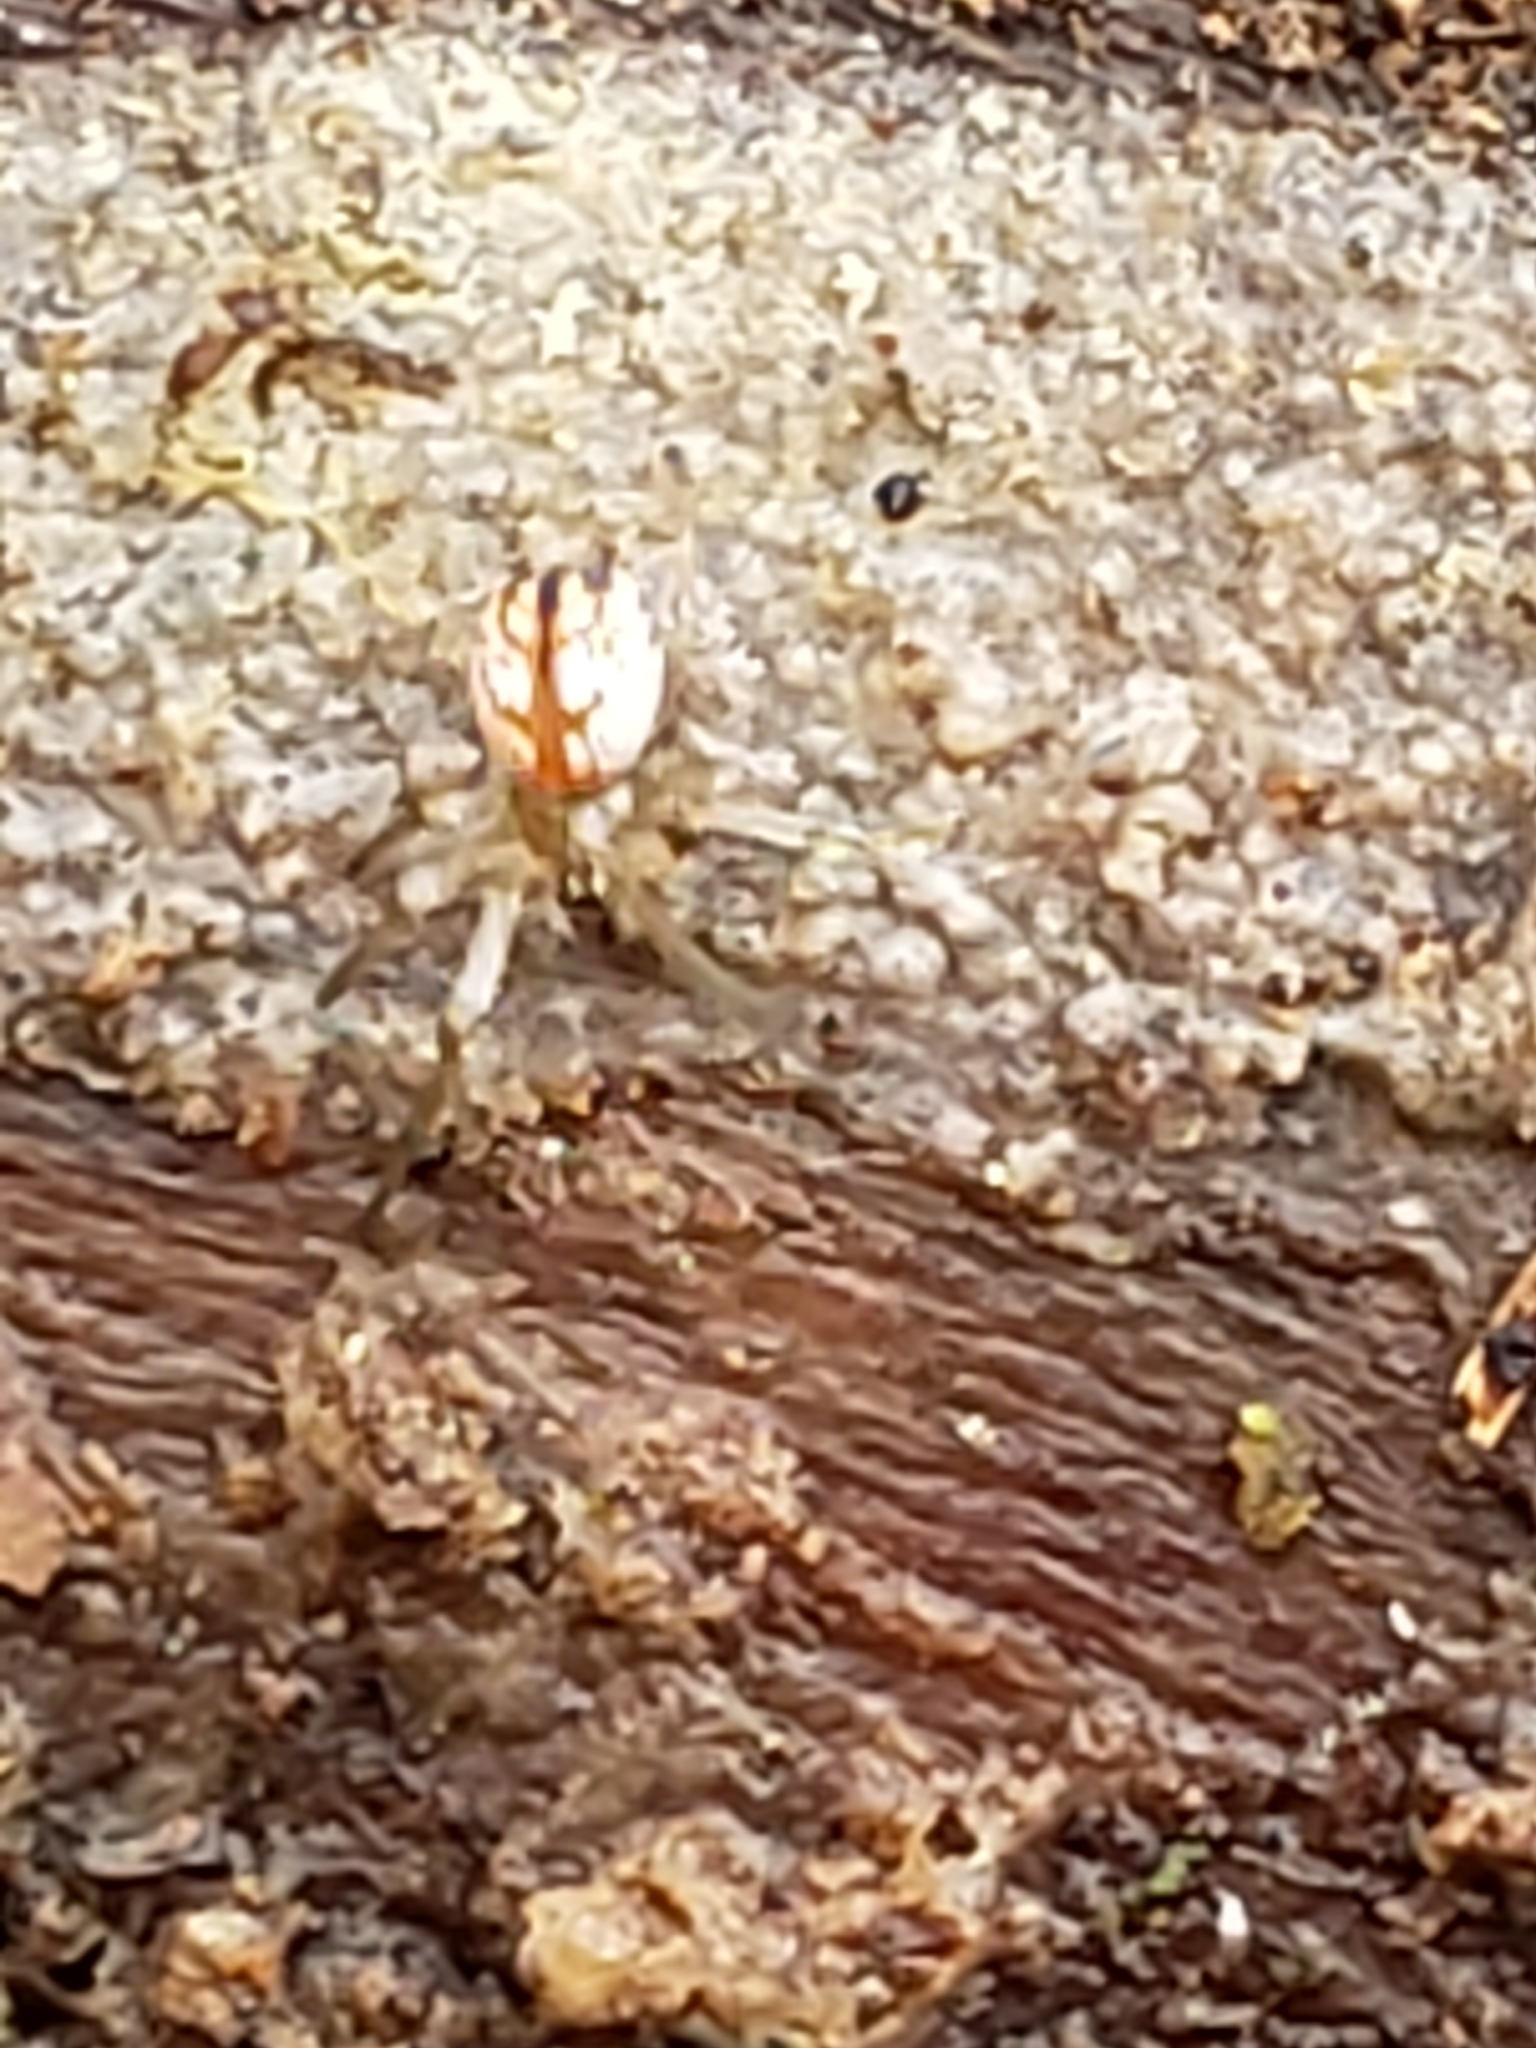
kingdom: Animalia
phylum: Arthropoda
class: Arachnida
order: Araneae
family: Tetragnathidae
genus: Leucauge
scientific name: Leucauge venusta
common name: Longjawed orb weavers
